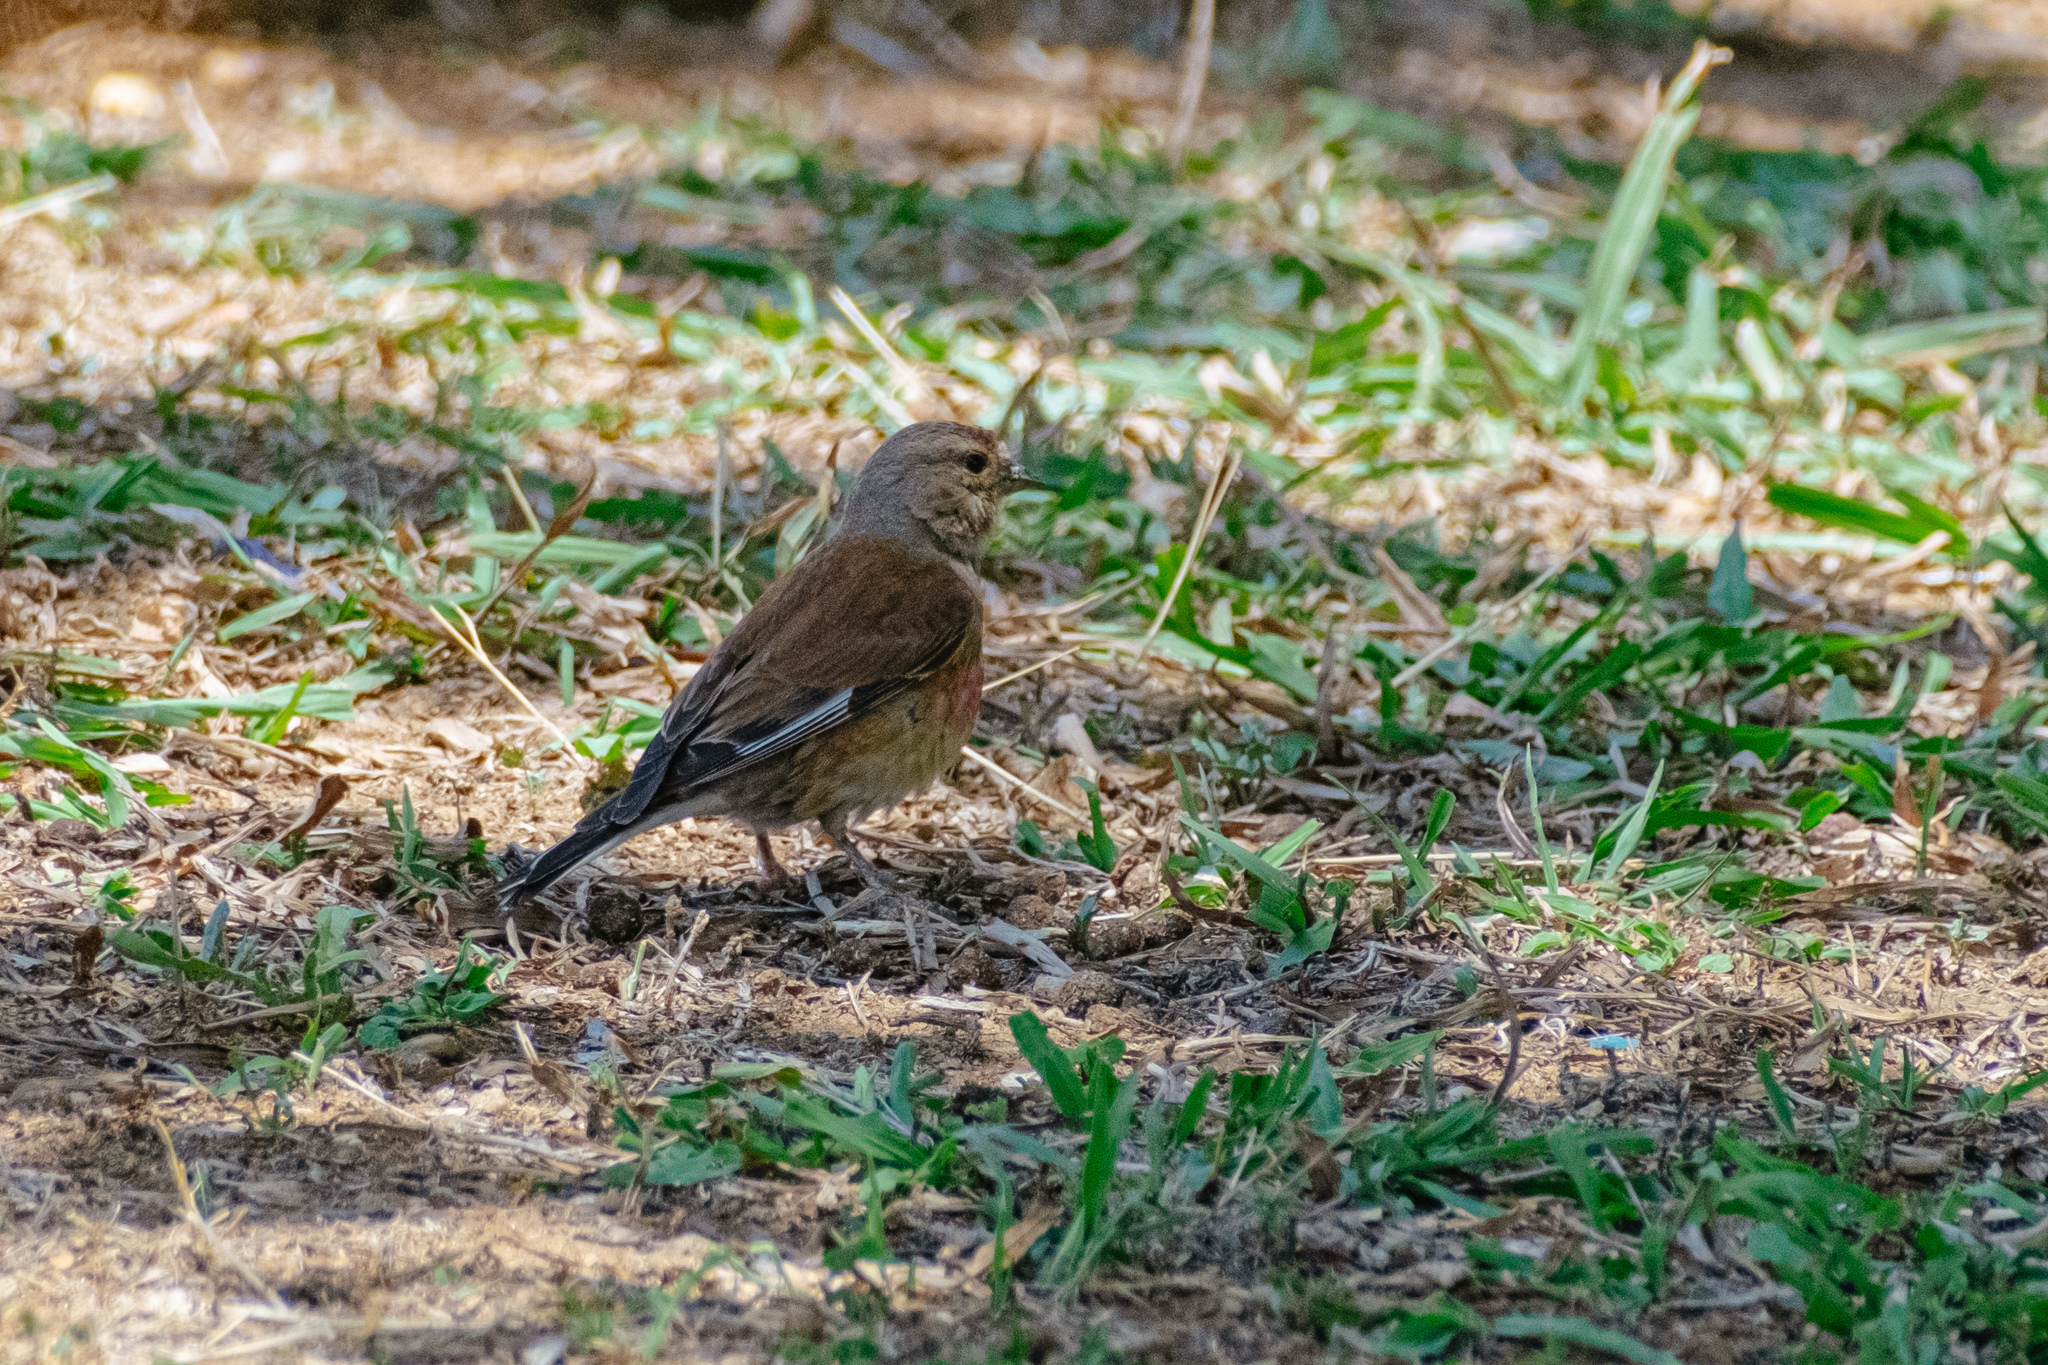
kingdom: Animalia
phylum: Chordata
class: Aves
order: Passeriformes
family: Fringillidae
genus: Linaria
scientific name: Linaria cannabina
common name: Common linnet
